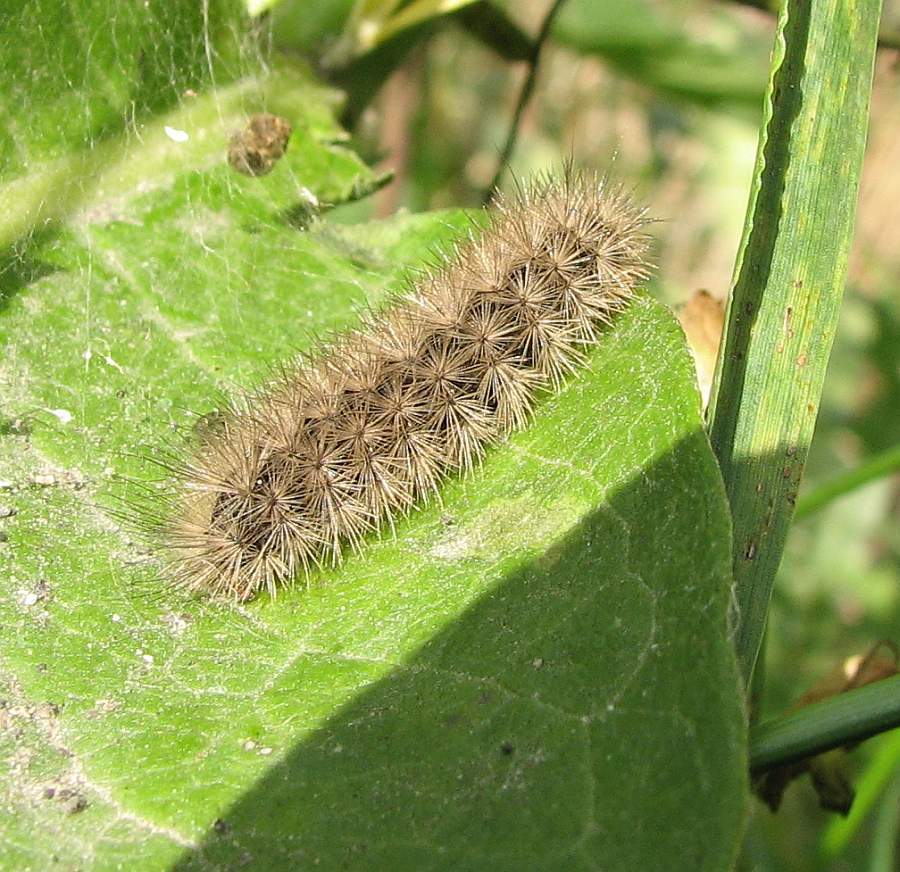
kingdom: Animalia
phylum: Arthropoda
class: Insecta
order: Lepidoptera
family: Erebidae
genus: Phragmatobia
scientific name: Phragmatobia fuliginosa
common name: Ruby tiger
